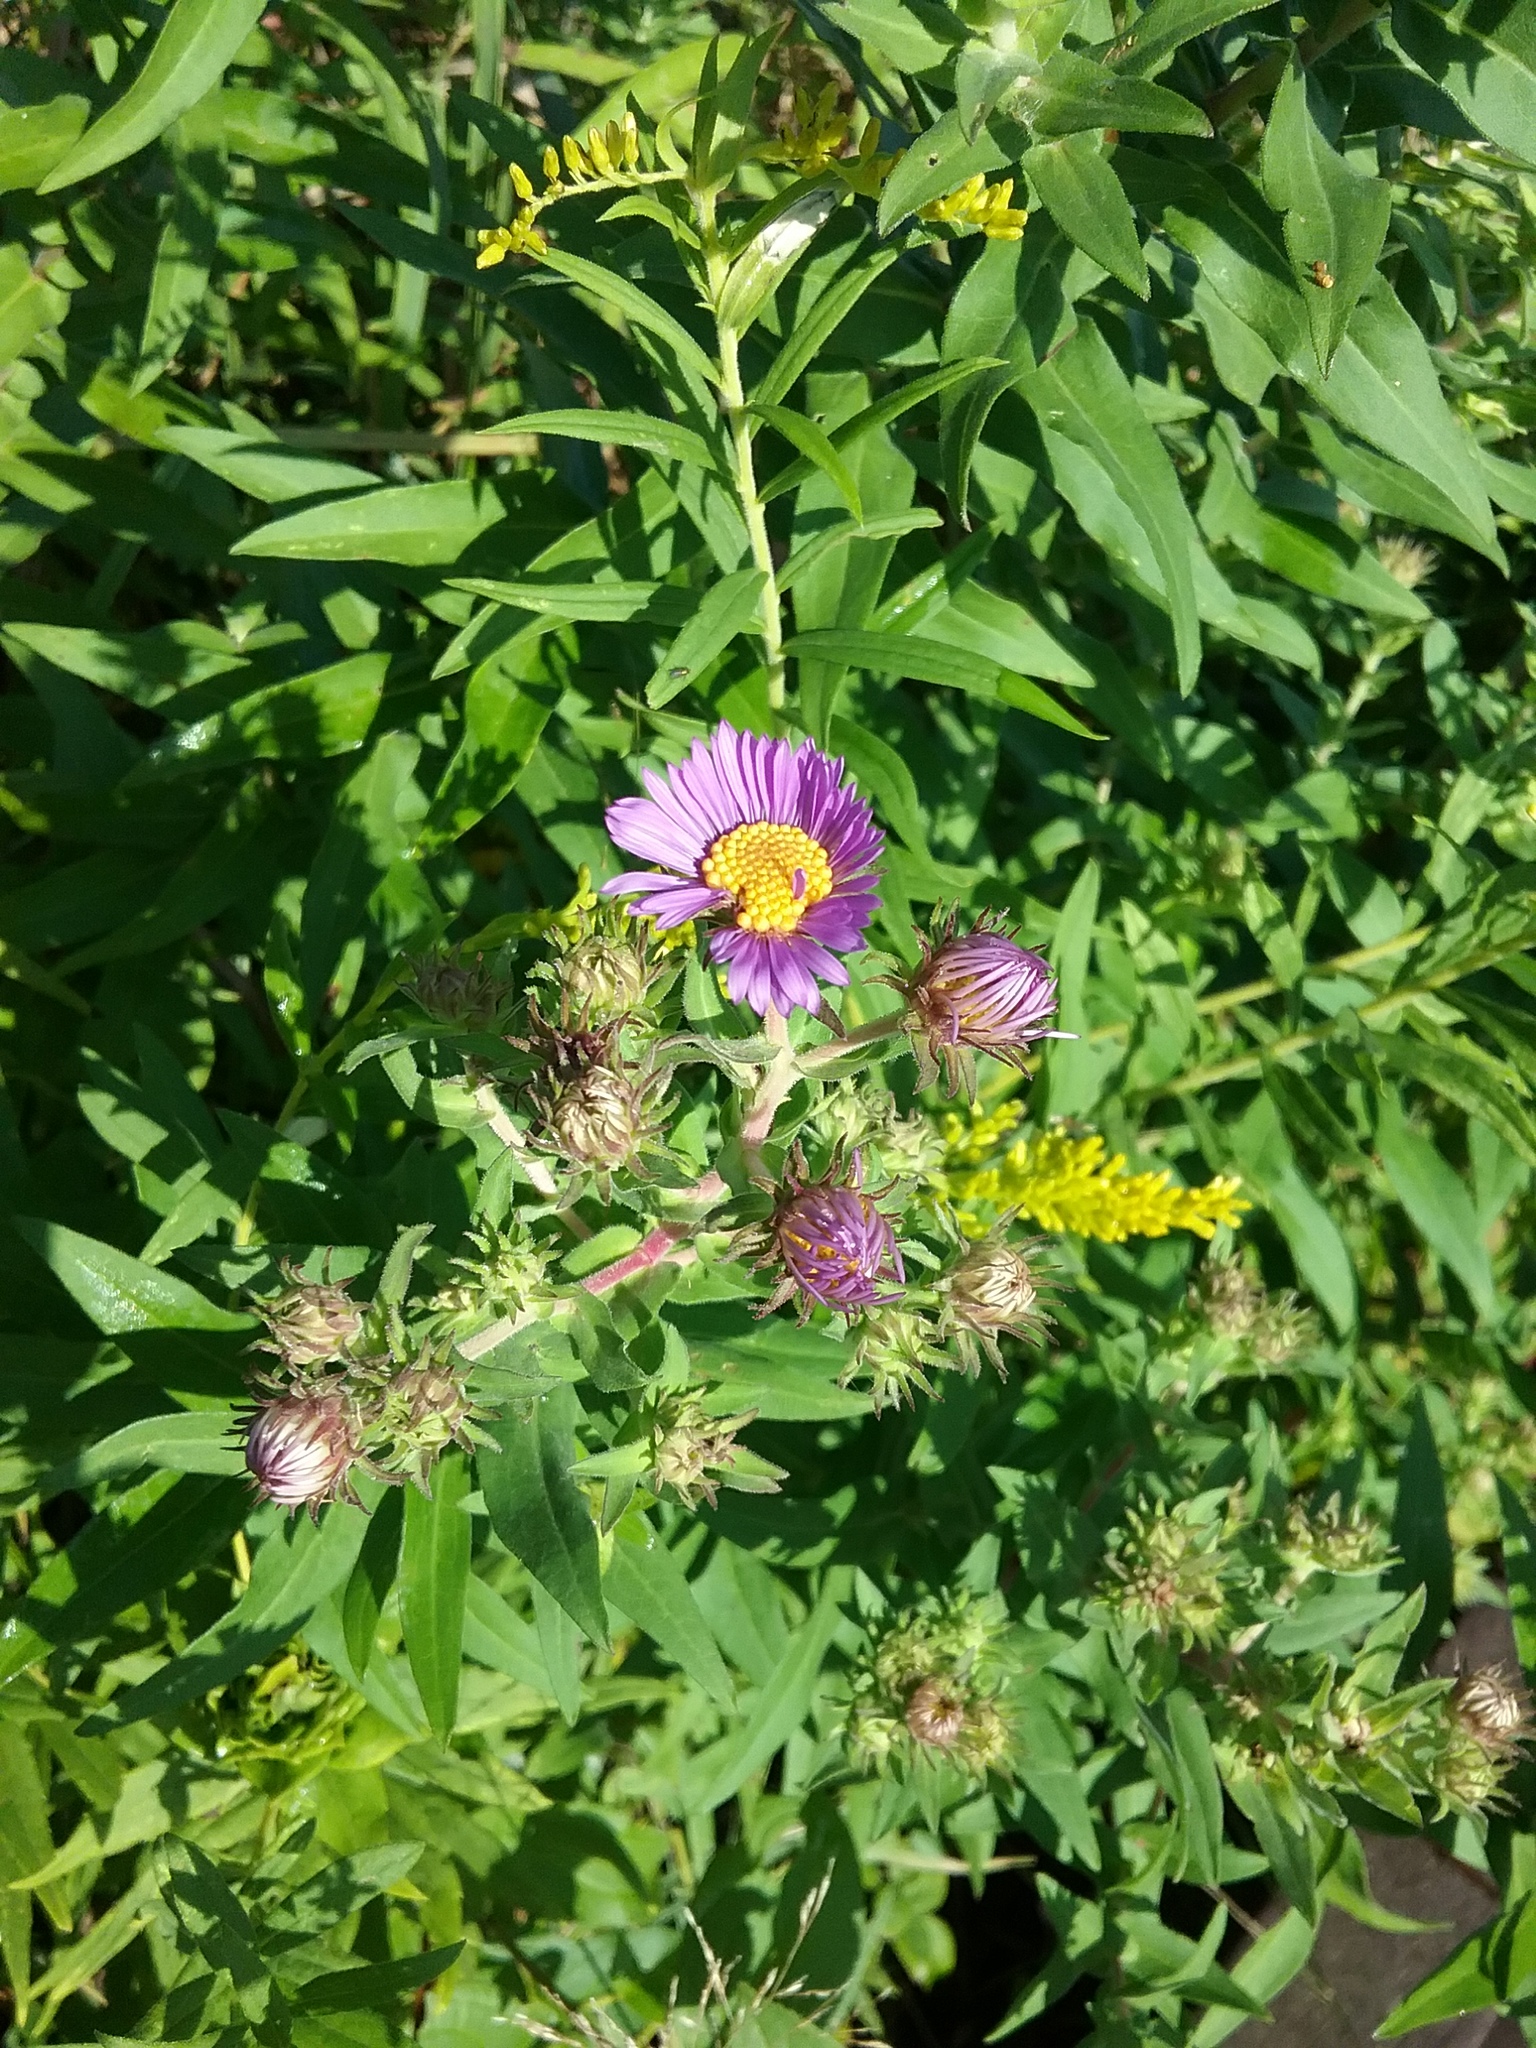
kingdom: Plantae
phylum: Tracheophyta
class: Magnoliopsida
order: Asterales
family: Asteraceae
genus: Symphyotrichum
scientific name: Symphyotrichum novae-angliae
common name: Michaelmas daisy
